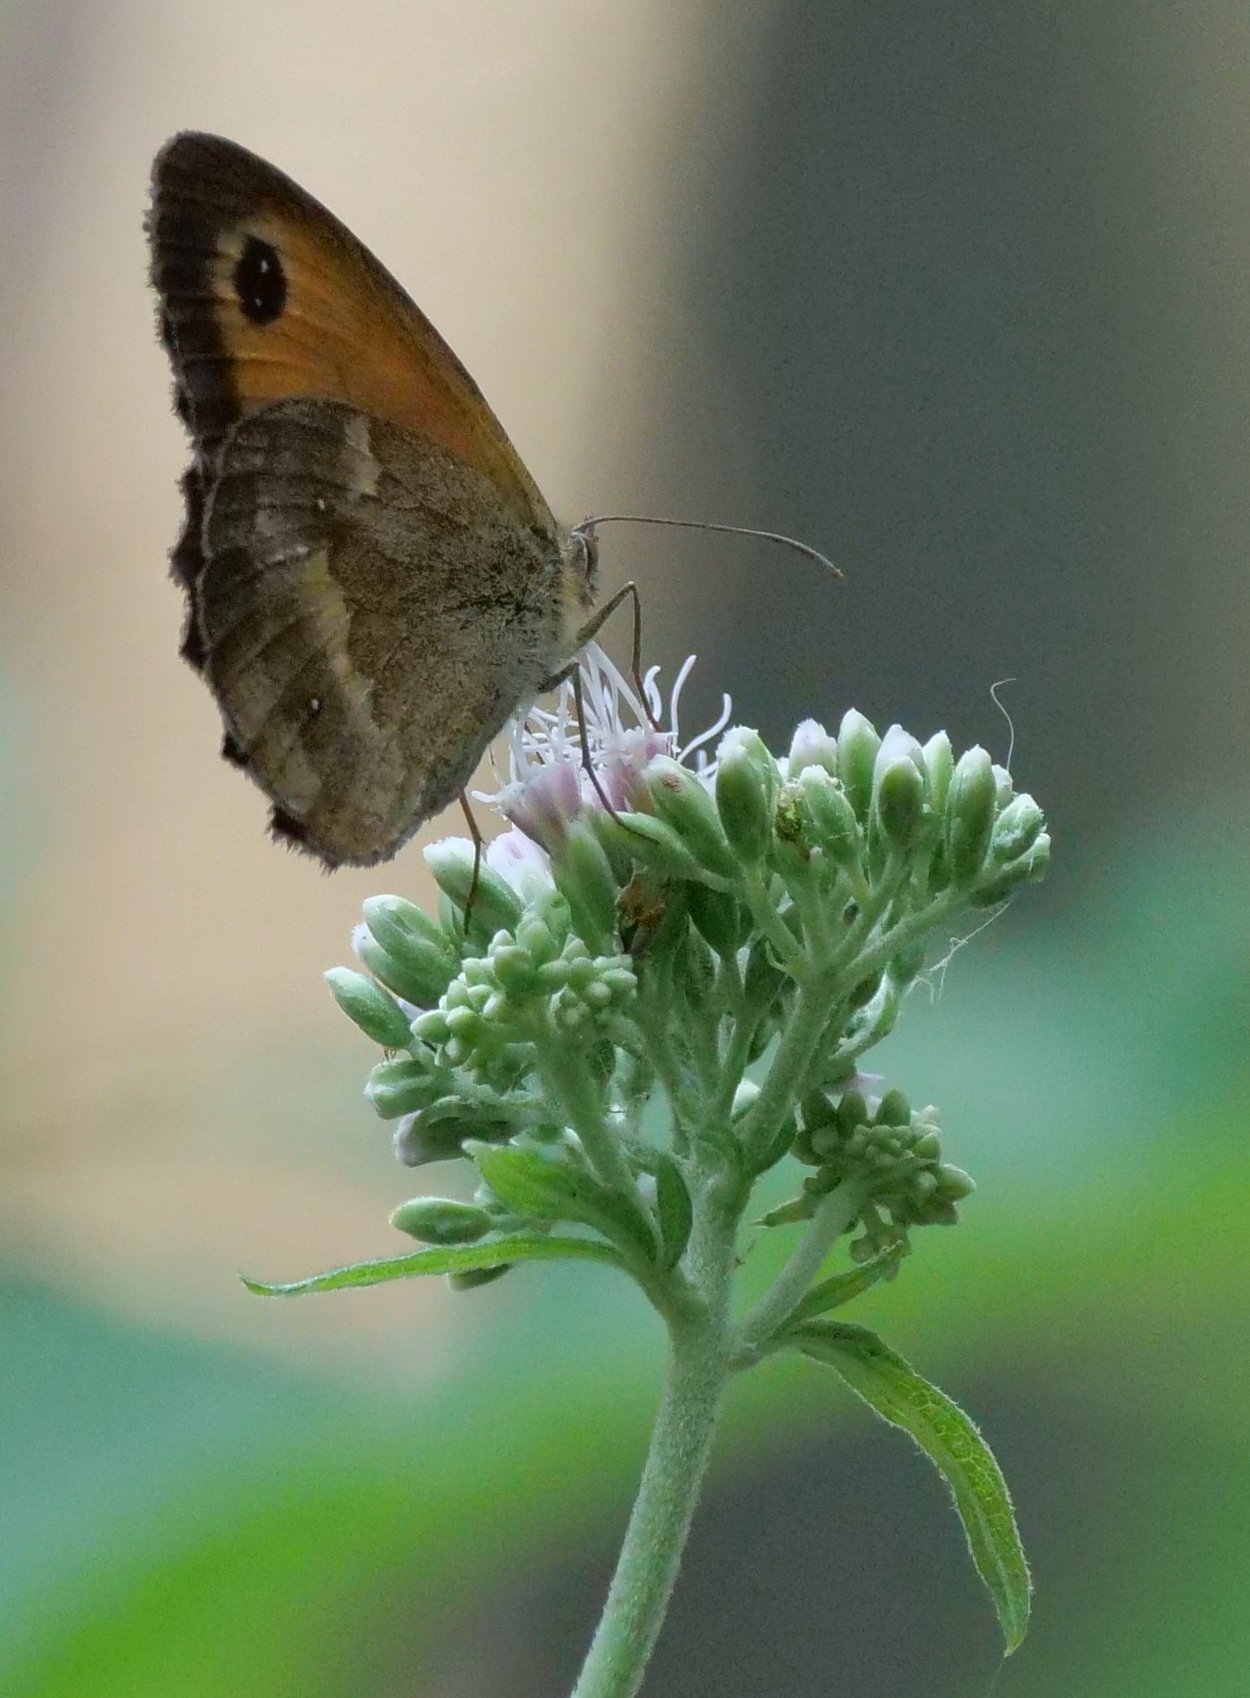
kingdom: Animalia
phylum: Arthropoda
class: Insecta
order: Lepidoptera
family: Nymphalidae
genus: Pyronia
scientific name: Pyronia tithonus
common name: Gatekeeper
